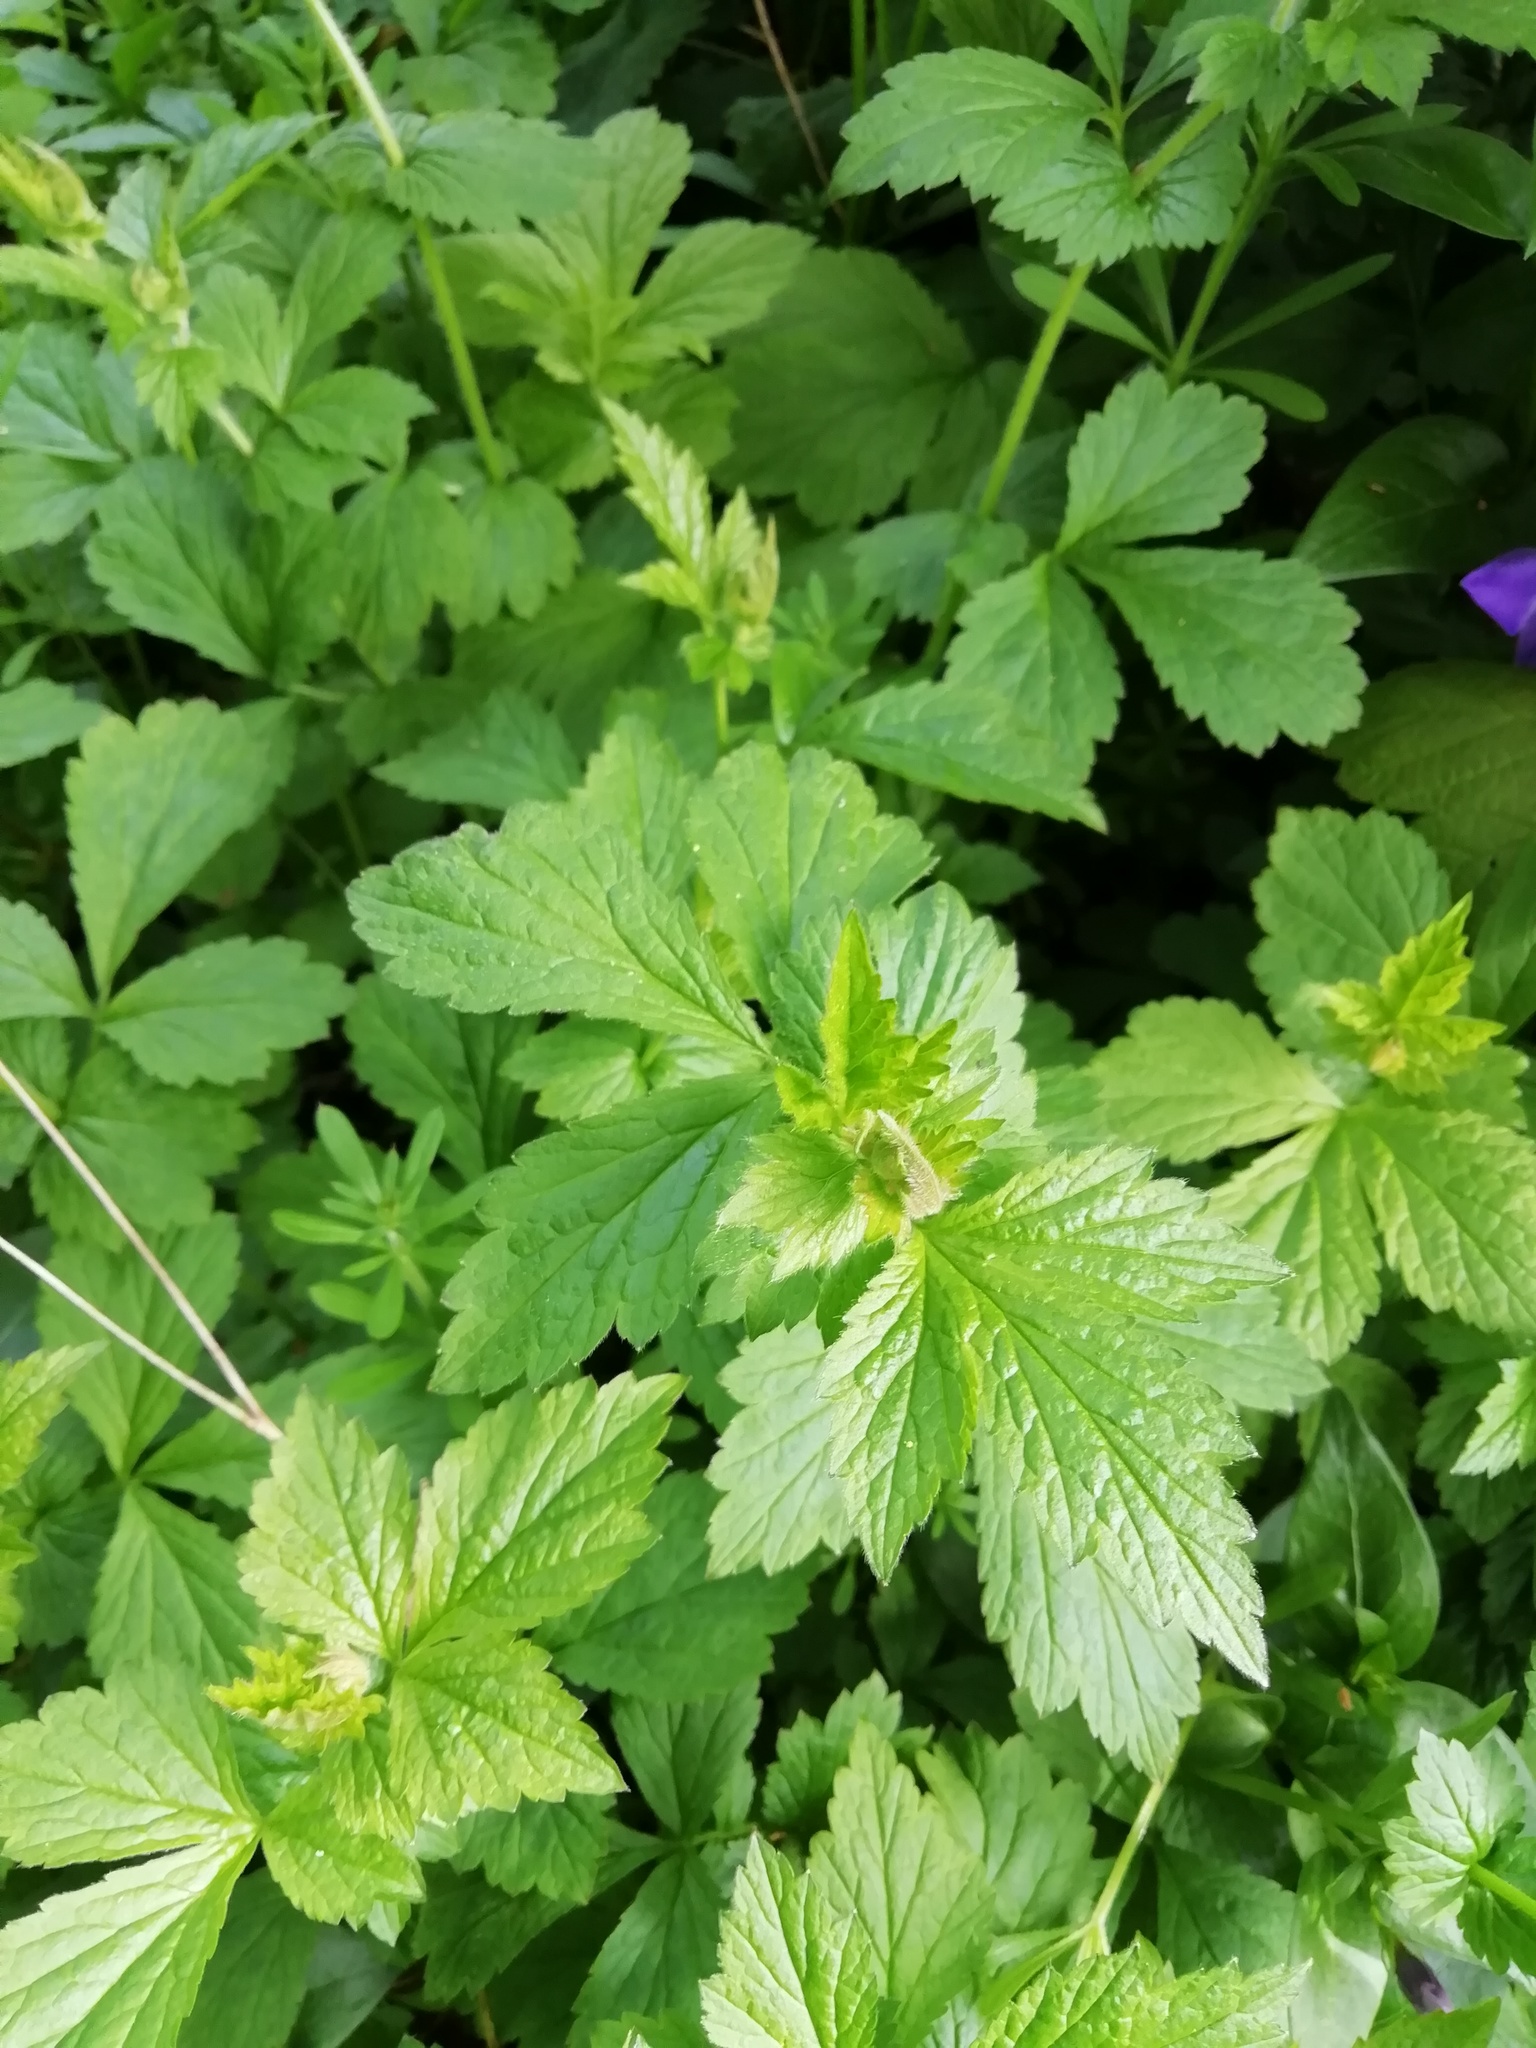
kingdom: Plantae
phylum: Tracheophyta
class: Magnoliopsida
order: Rosales
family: Rosaceae
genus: Geum
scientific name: Geum urbanum
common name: Wood avens
